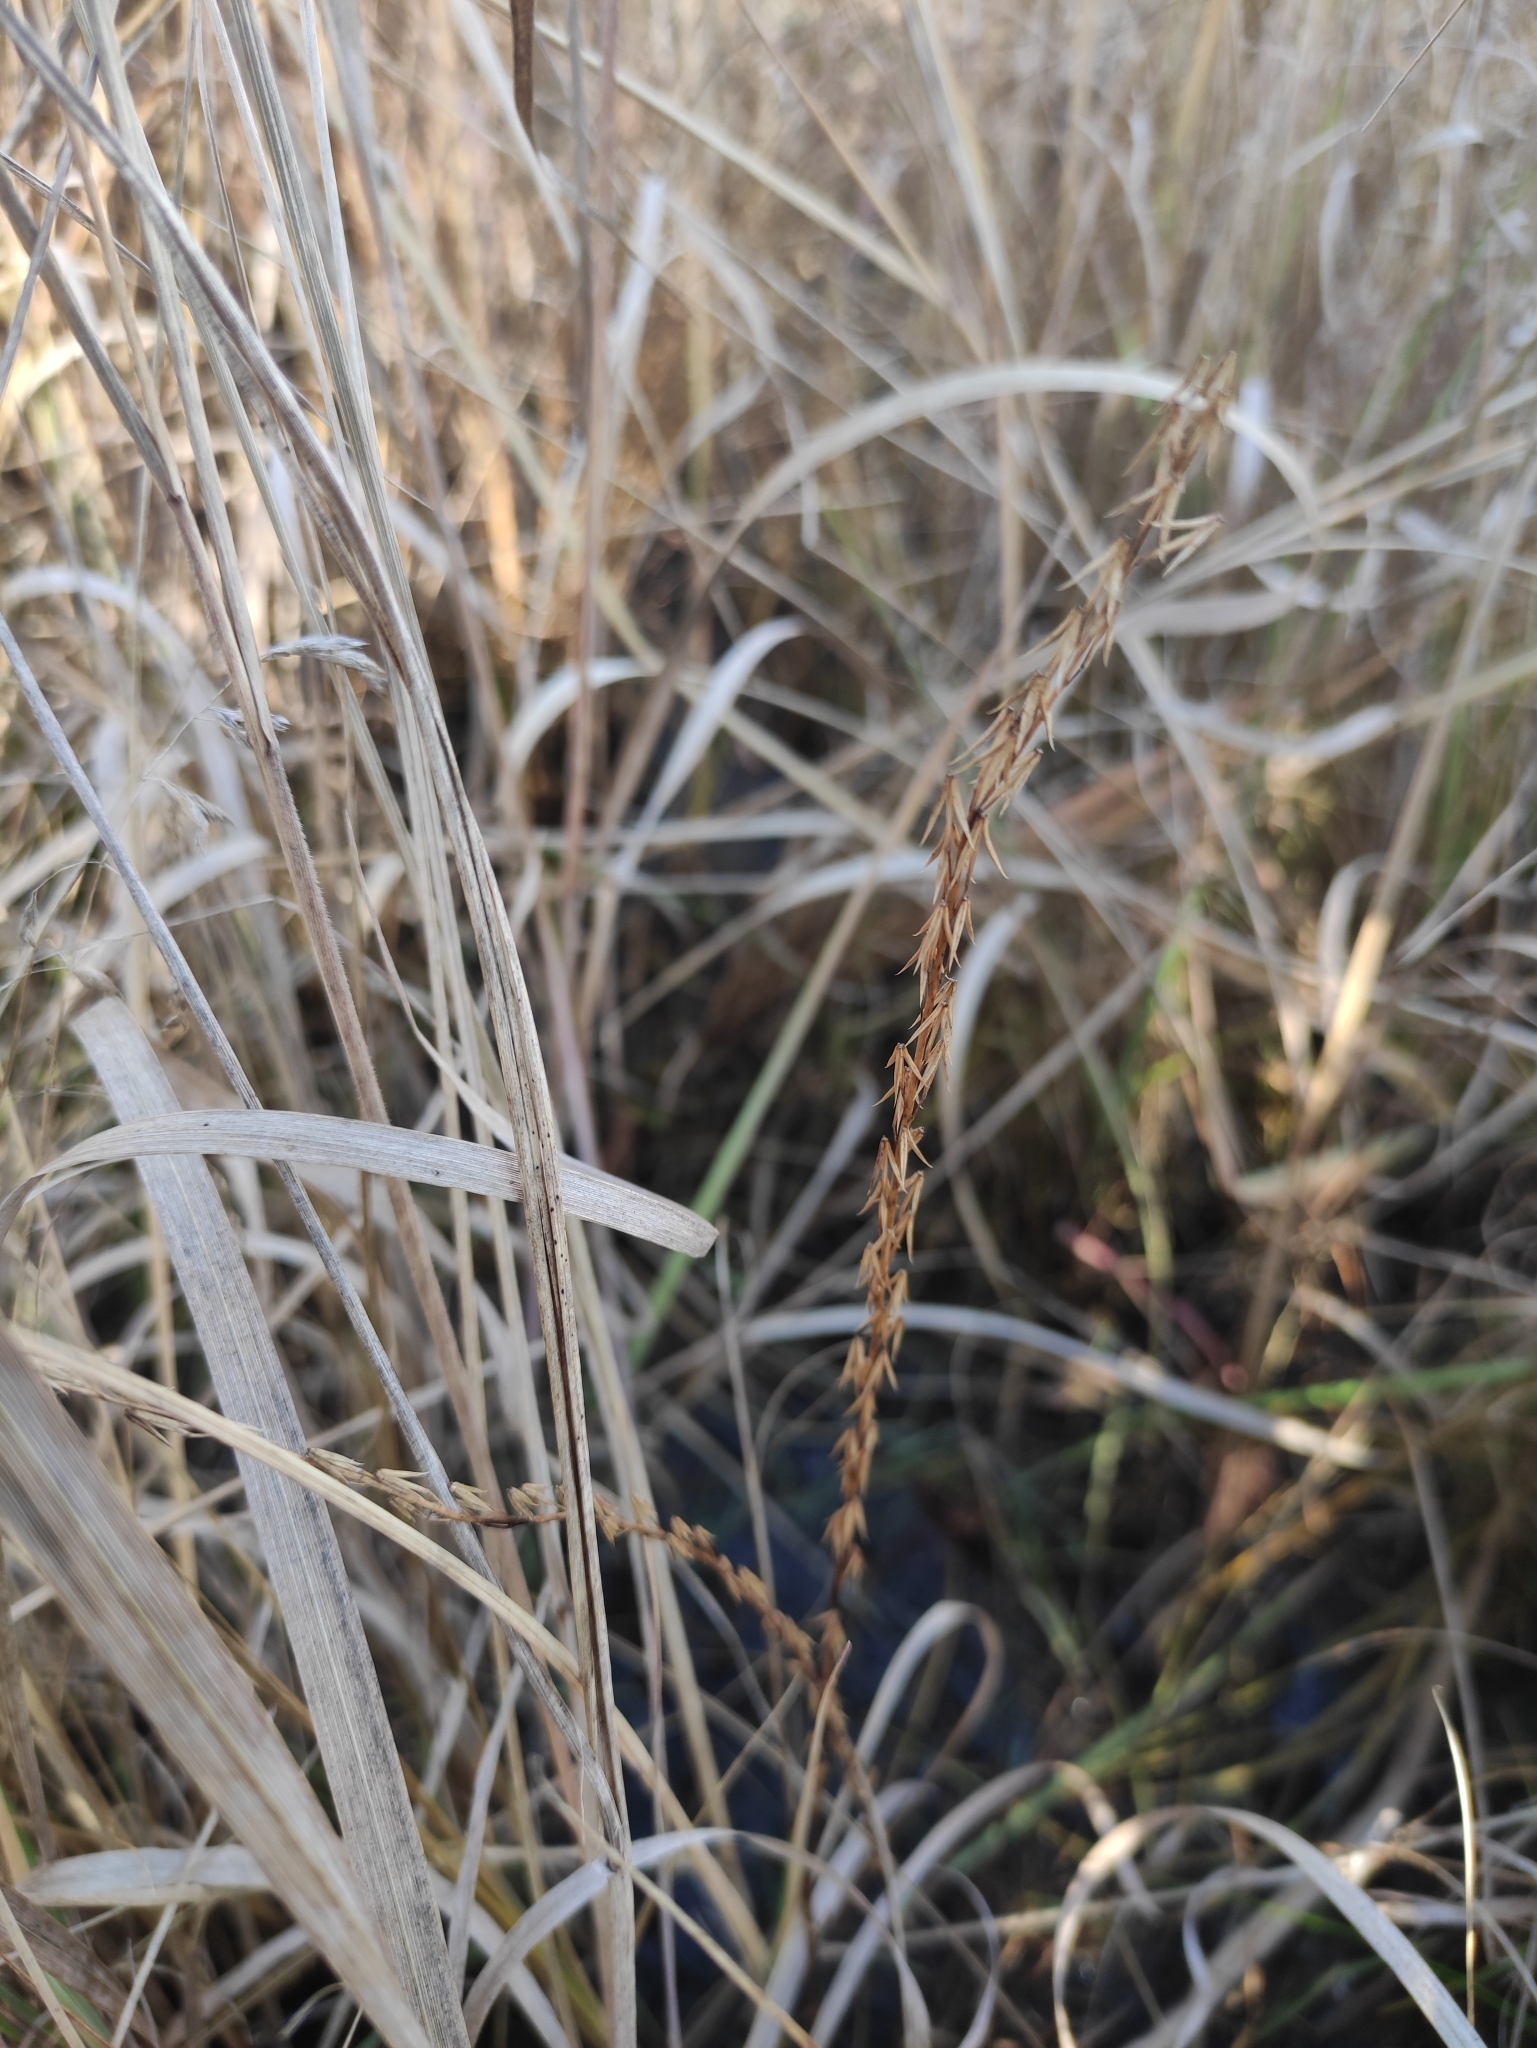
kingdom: Plantae
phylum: Tracheophyta
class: Liliopsida
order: Alismatales
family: Juncaginaceae
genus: Triglochin
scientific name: Triglochin palustris
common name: Marsh arrowgrass
